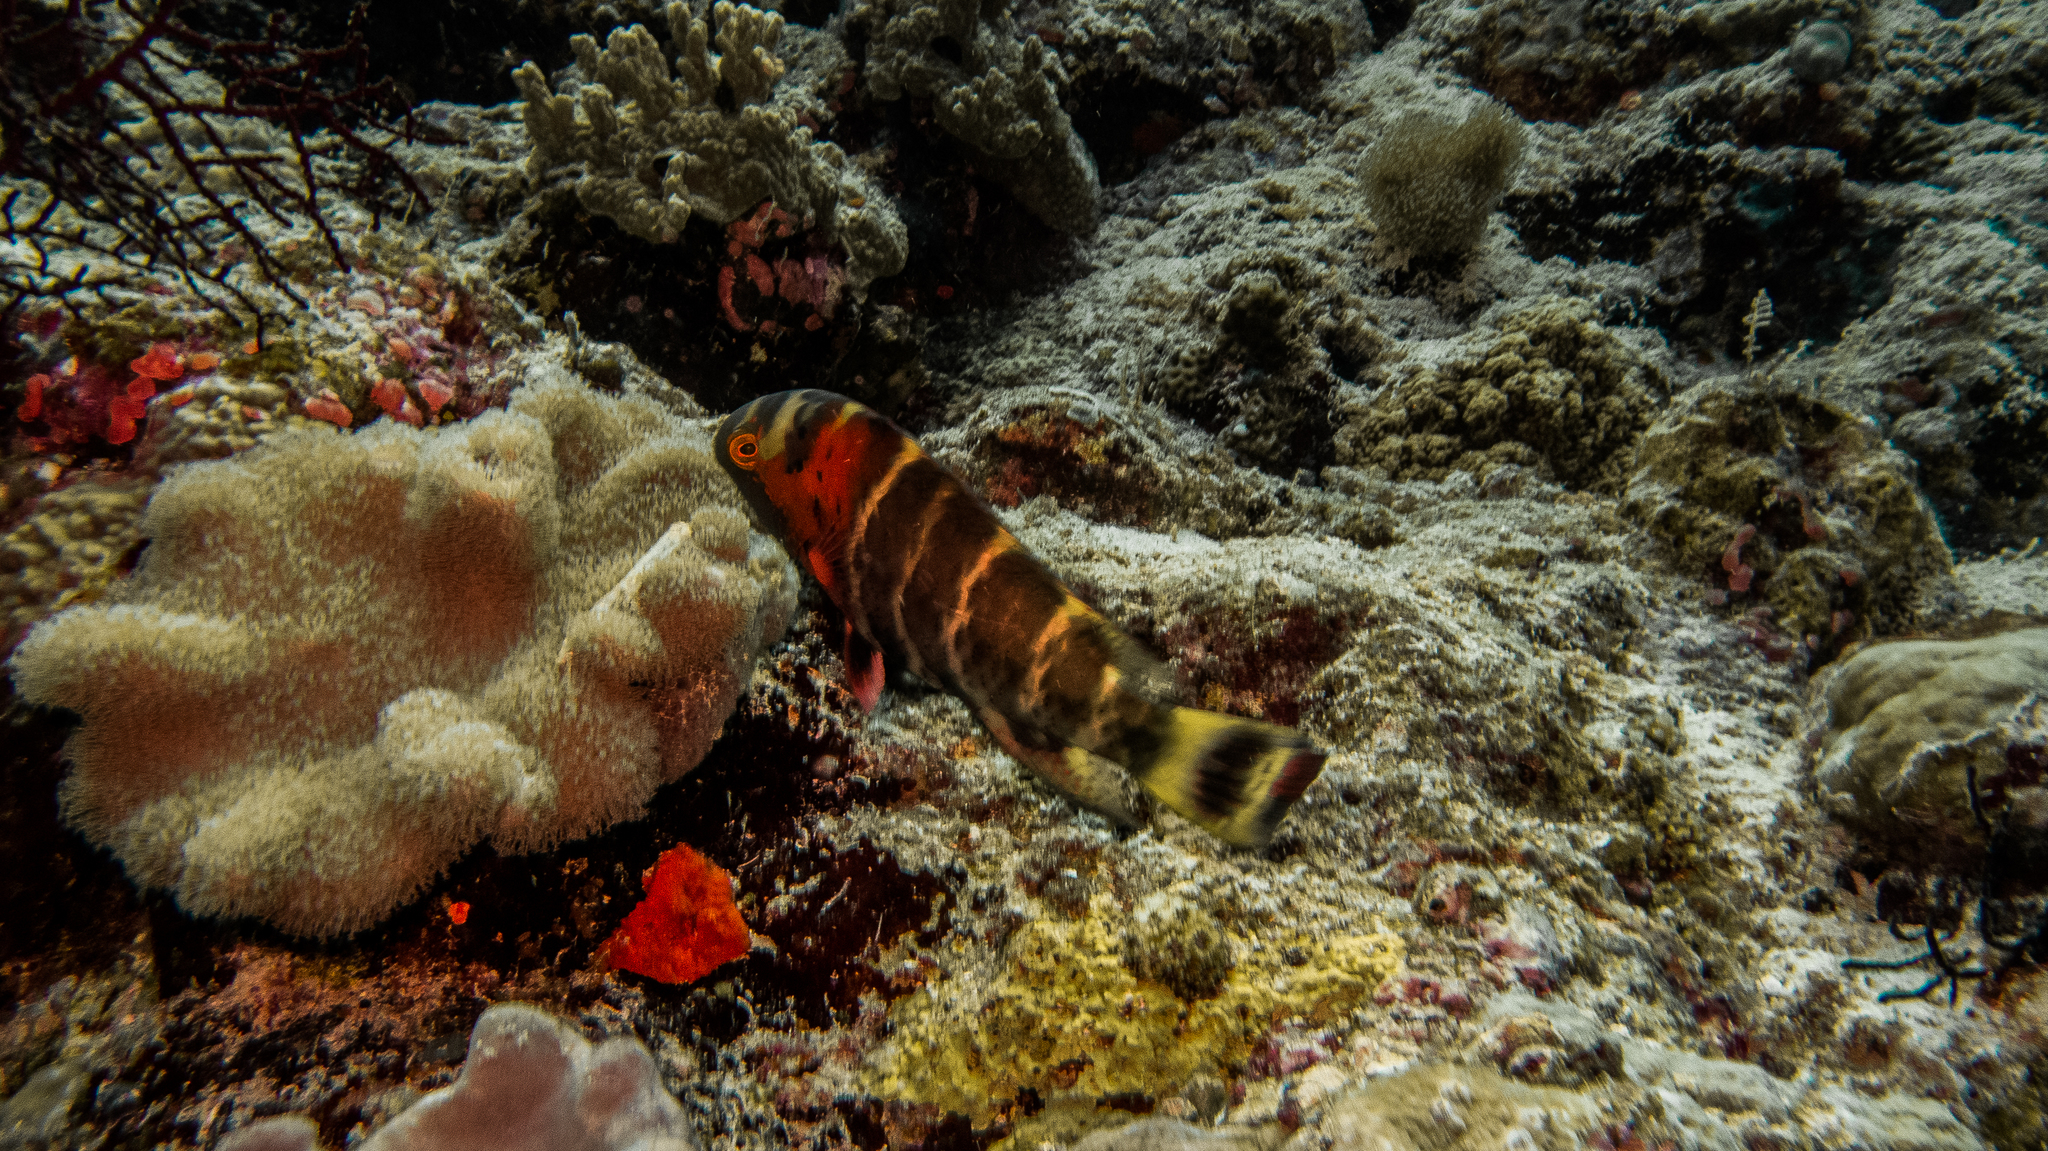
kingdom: Animalia
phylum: Chordata
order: Perciformes
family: Labridae
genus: Cheilinus
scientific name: Cheilinus fasciatus
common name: Red-breasted wrasse
